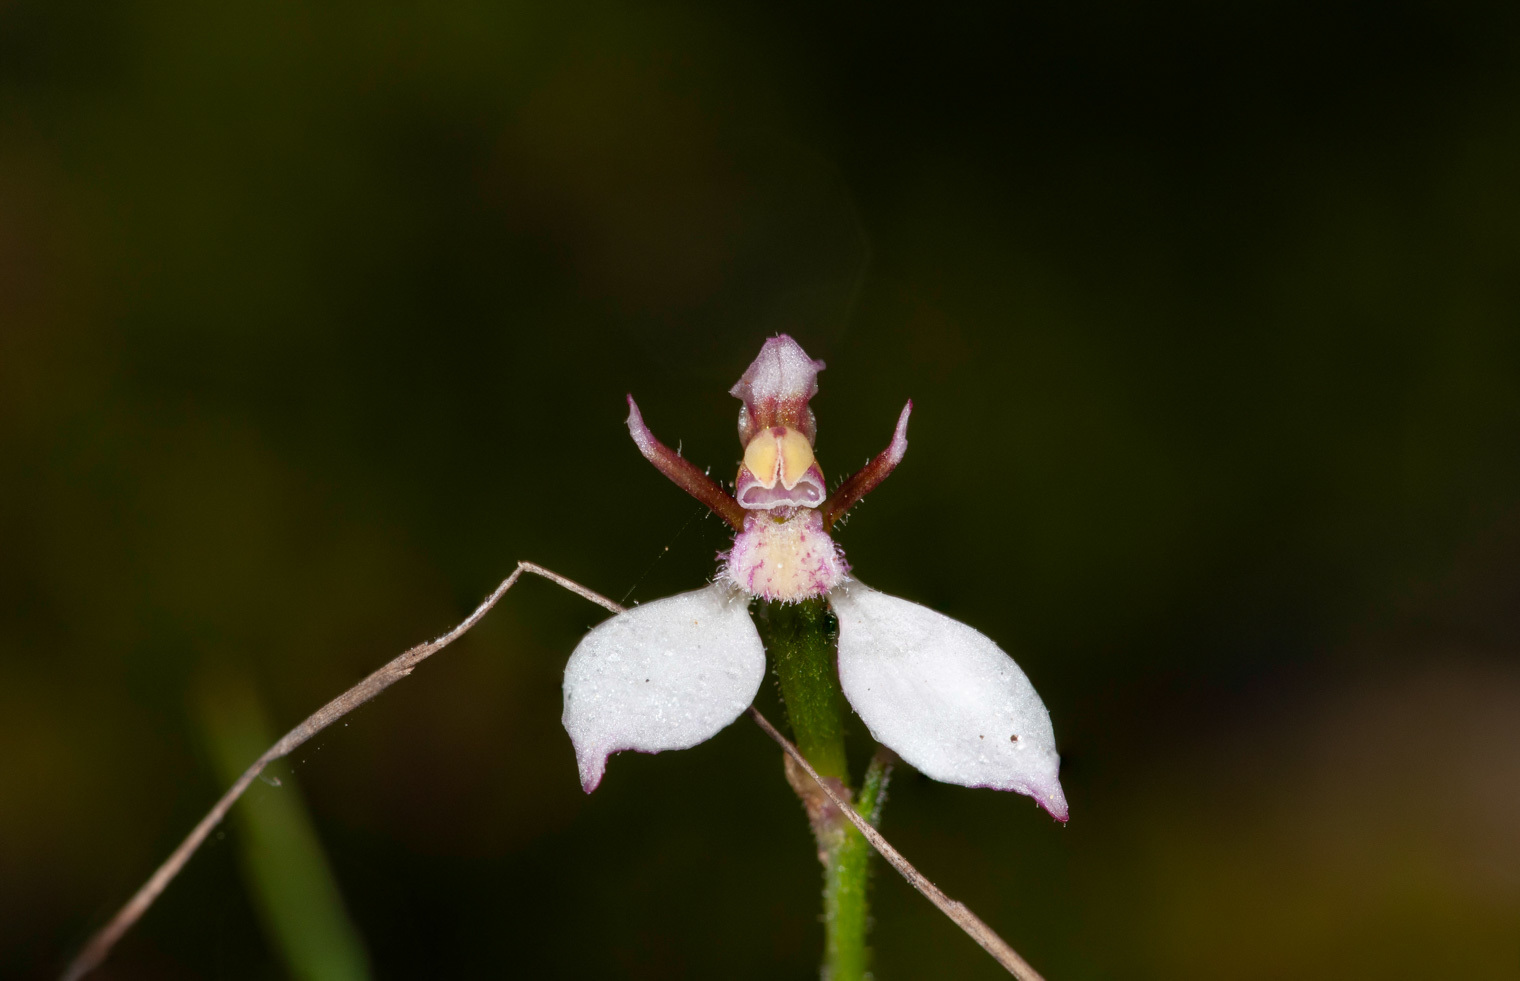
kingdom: Plantae
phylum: Tracheophyta
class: Liliopsida
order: Asparagales
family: Orchidaceae
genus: Eriochilus
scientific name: Eriochilus petricola
